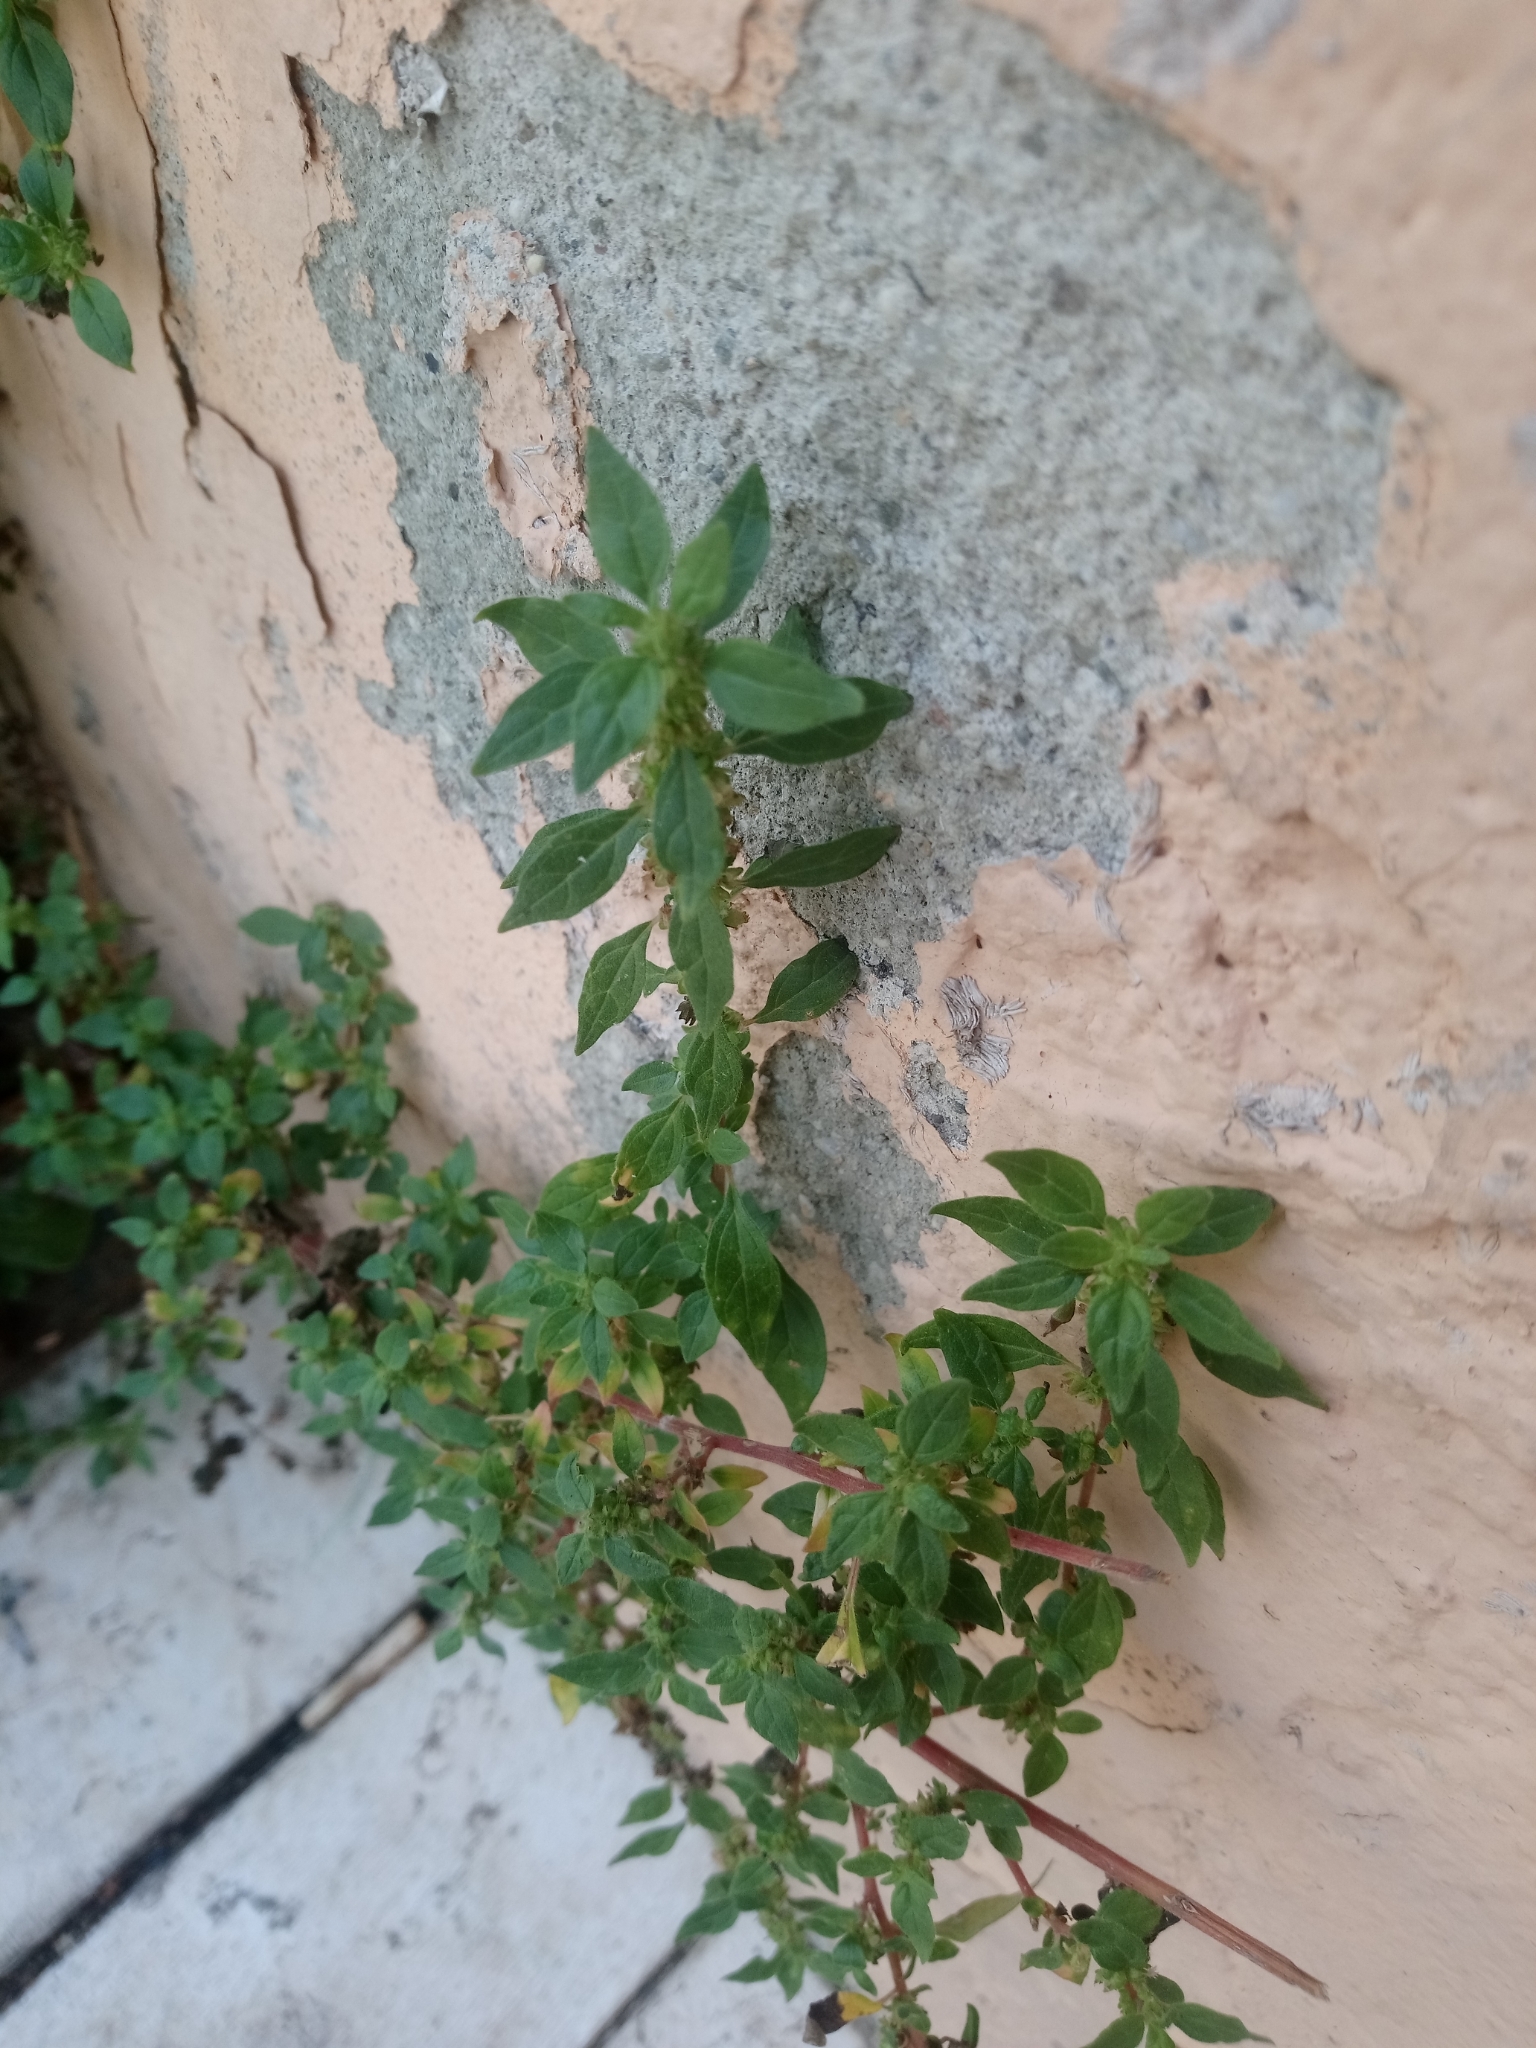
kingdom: Plantae
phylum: Tracheophyta
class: Magnoliopsida
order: Rosales
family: Urticaceae
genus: Parietaria
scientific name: Parietaria judaica
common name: Pellitory-of-the-wall
